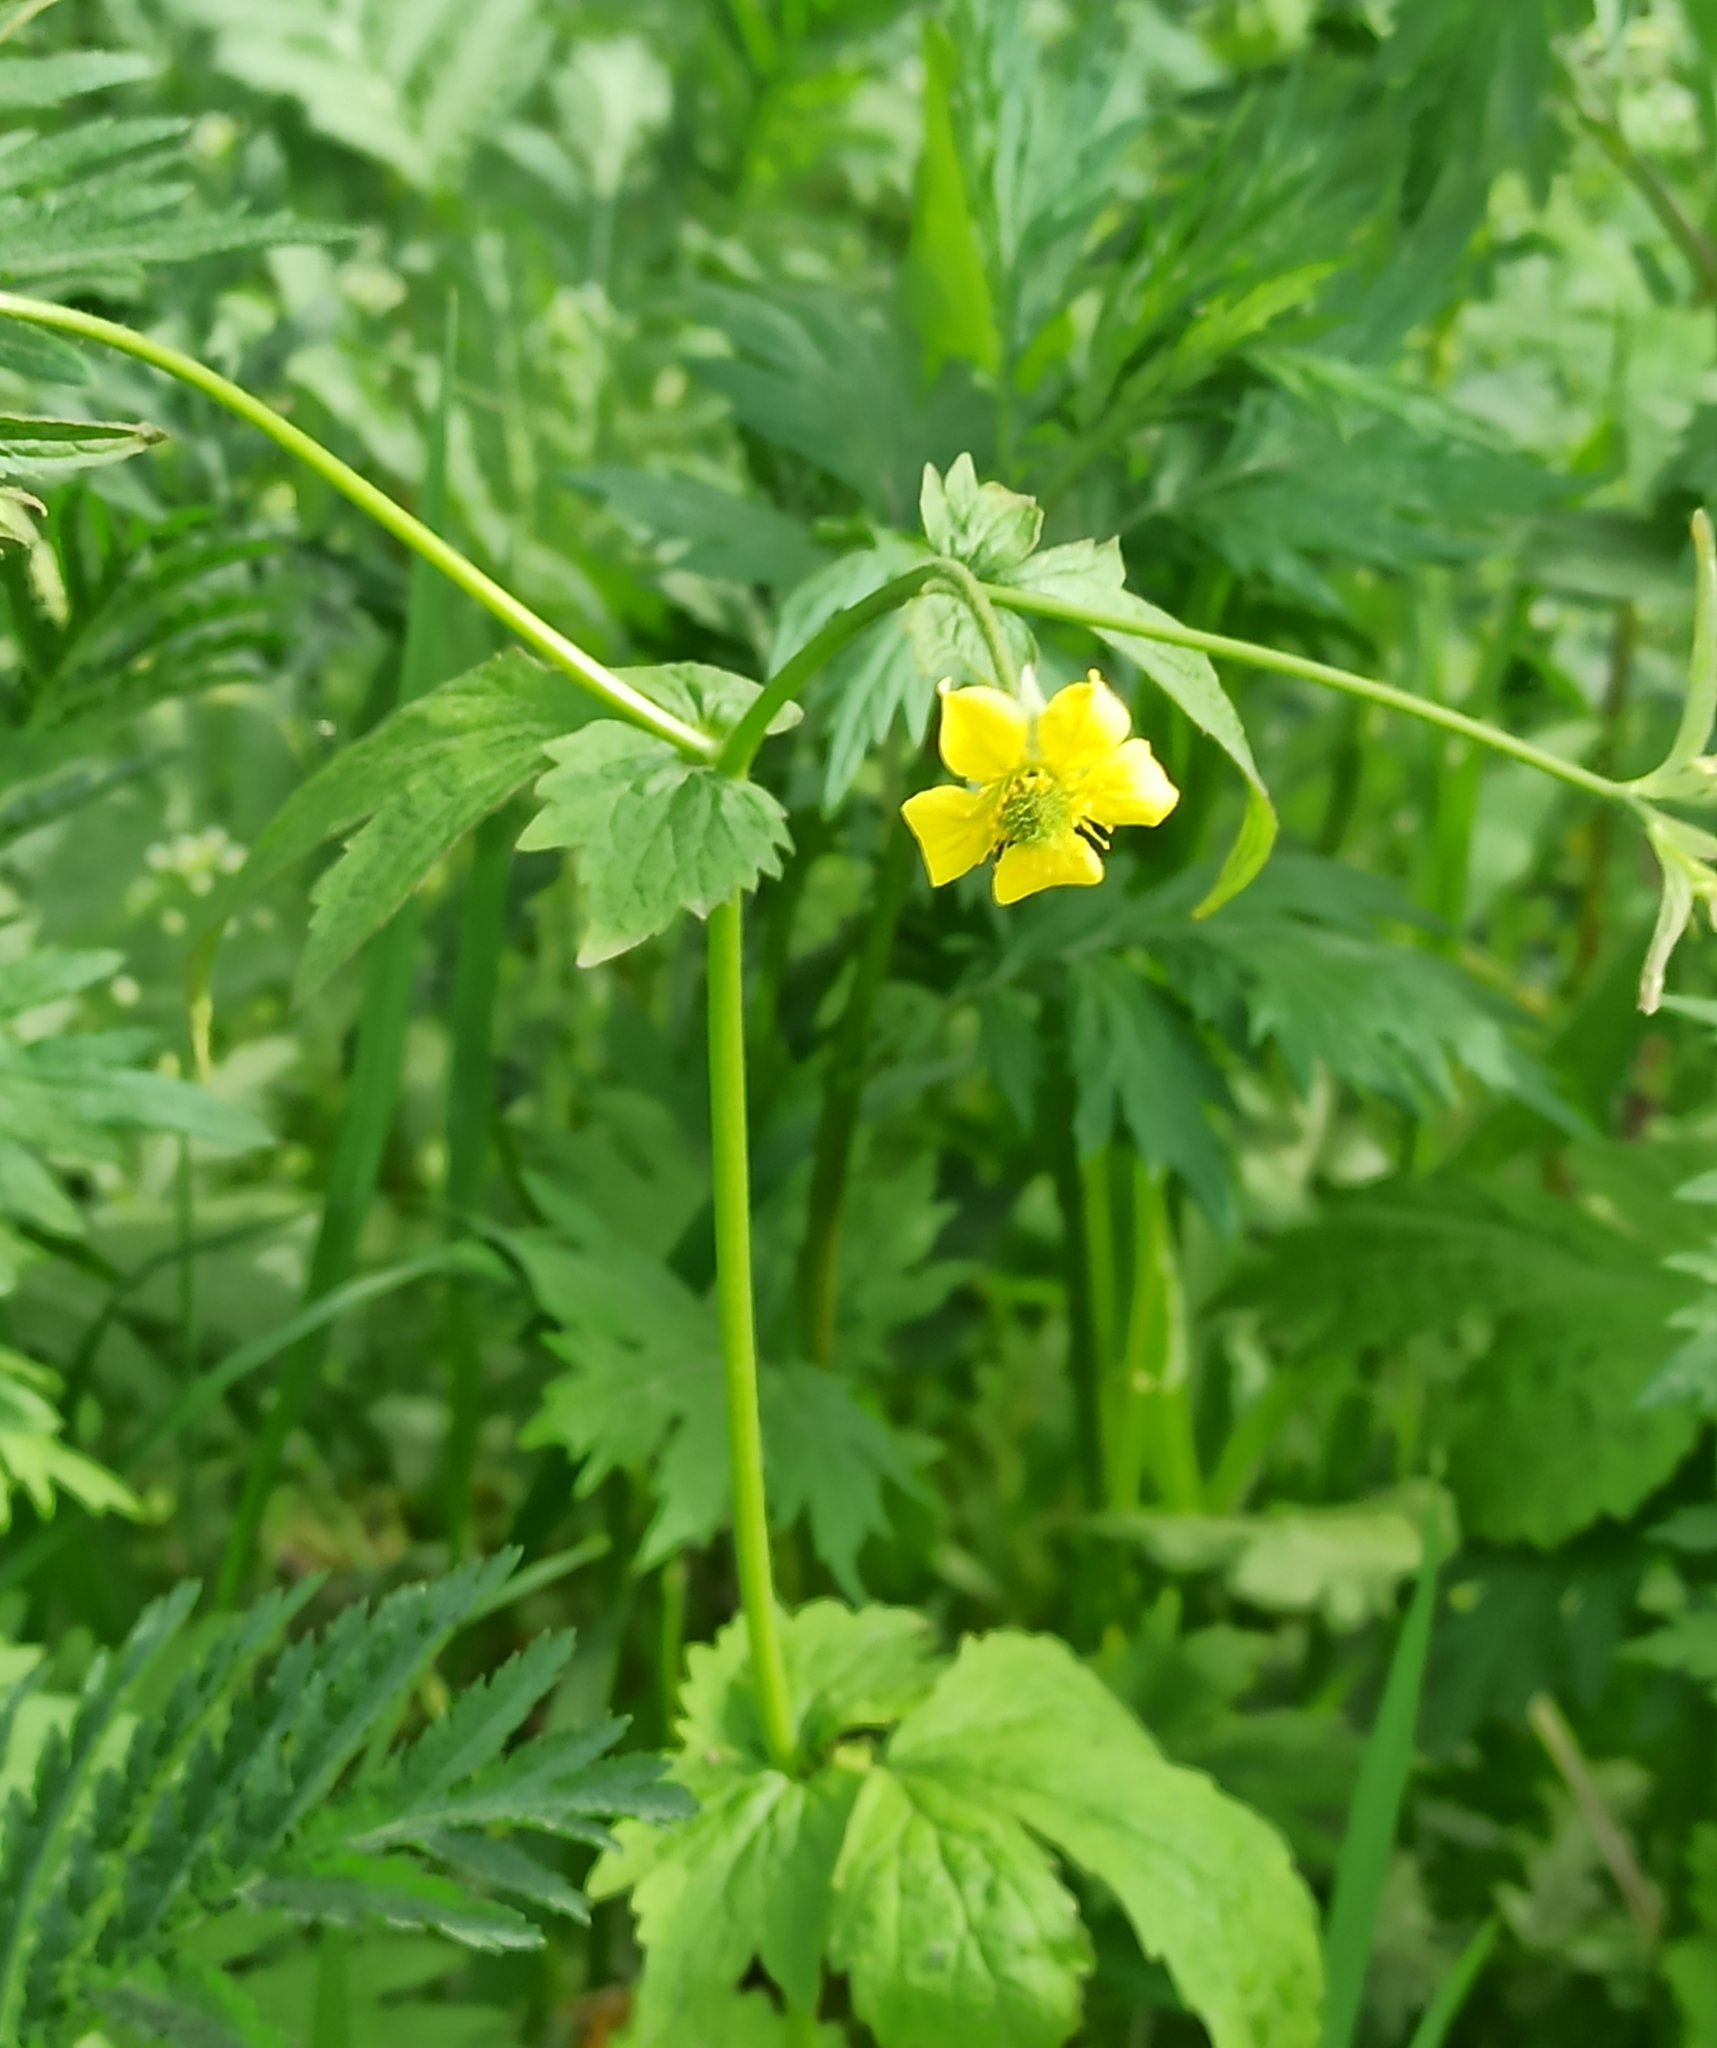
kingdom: Plantae
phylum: Tracheophyta
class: Magnoliopsida
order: Rosales
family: Rosaceae
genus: Geum
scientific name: Geum urbanum
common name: Wood avens
